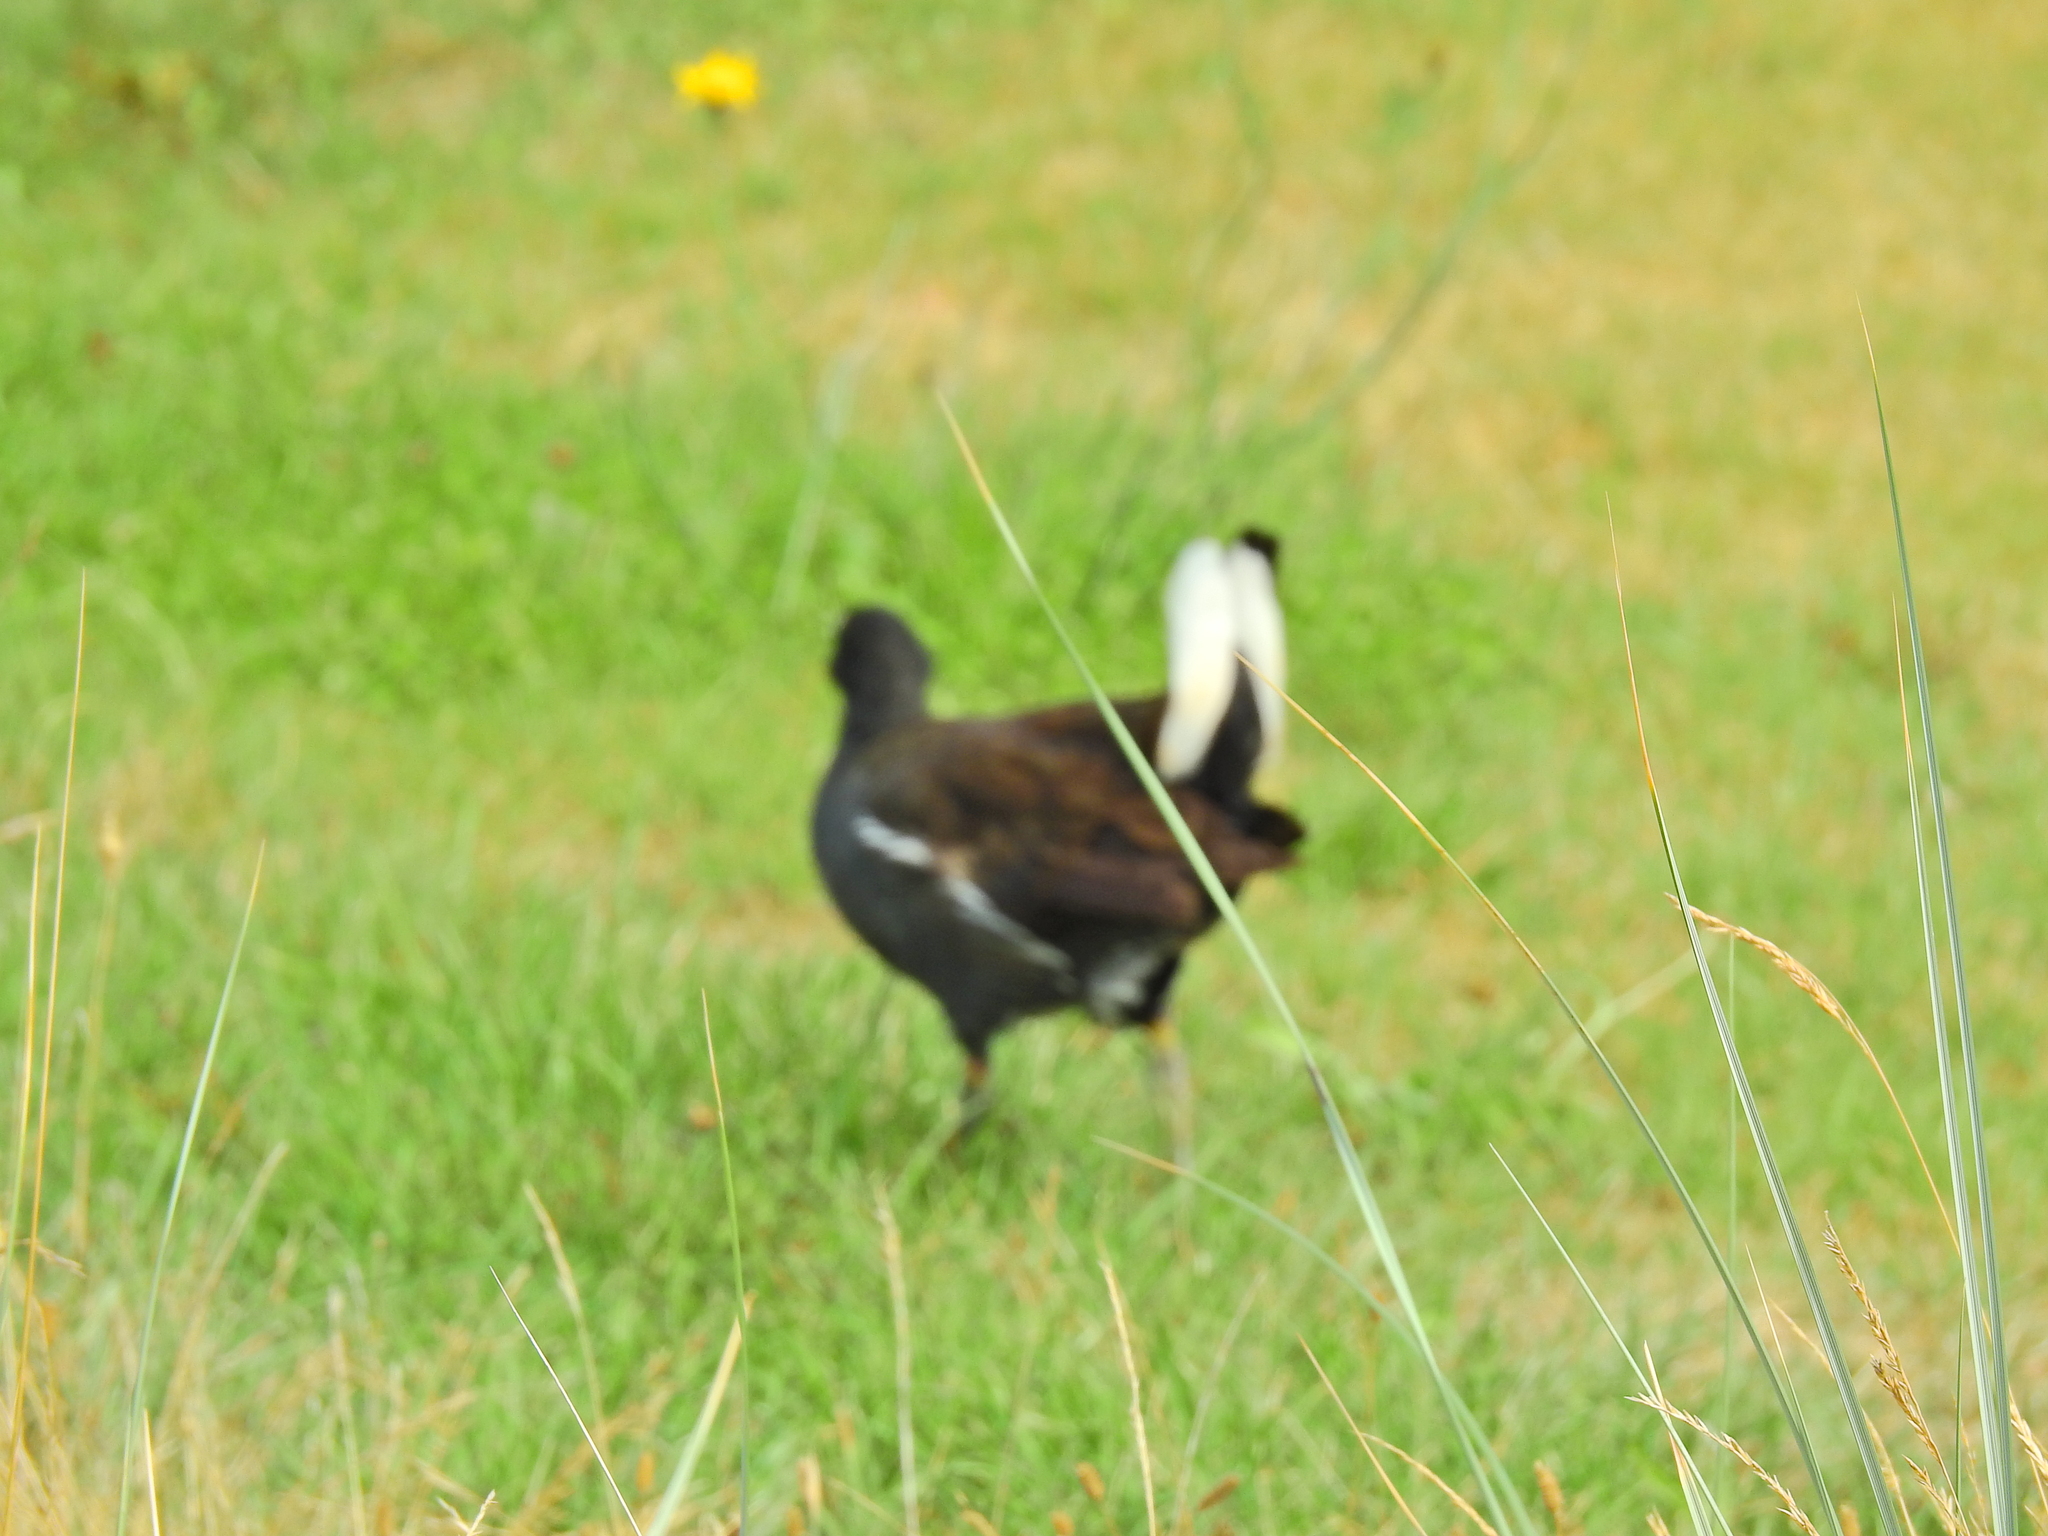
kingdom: Animalia
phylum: Chordata
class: Aves
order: Gruiformes
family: Rallidae
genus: Gallinula
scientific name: Gallinula chloropus
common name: Common moorhen
